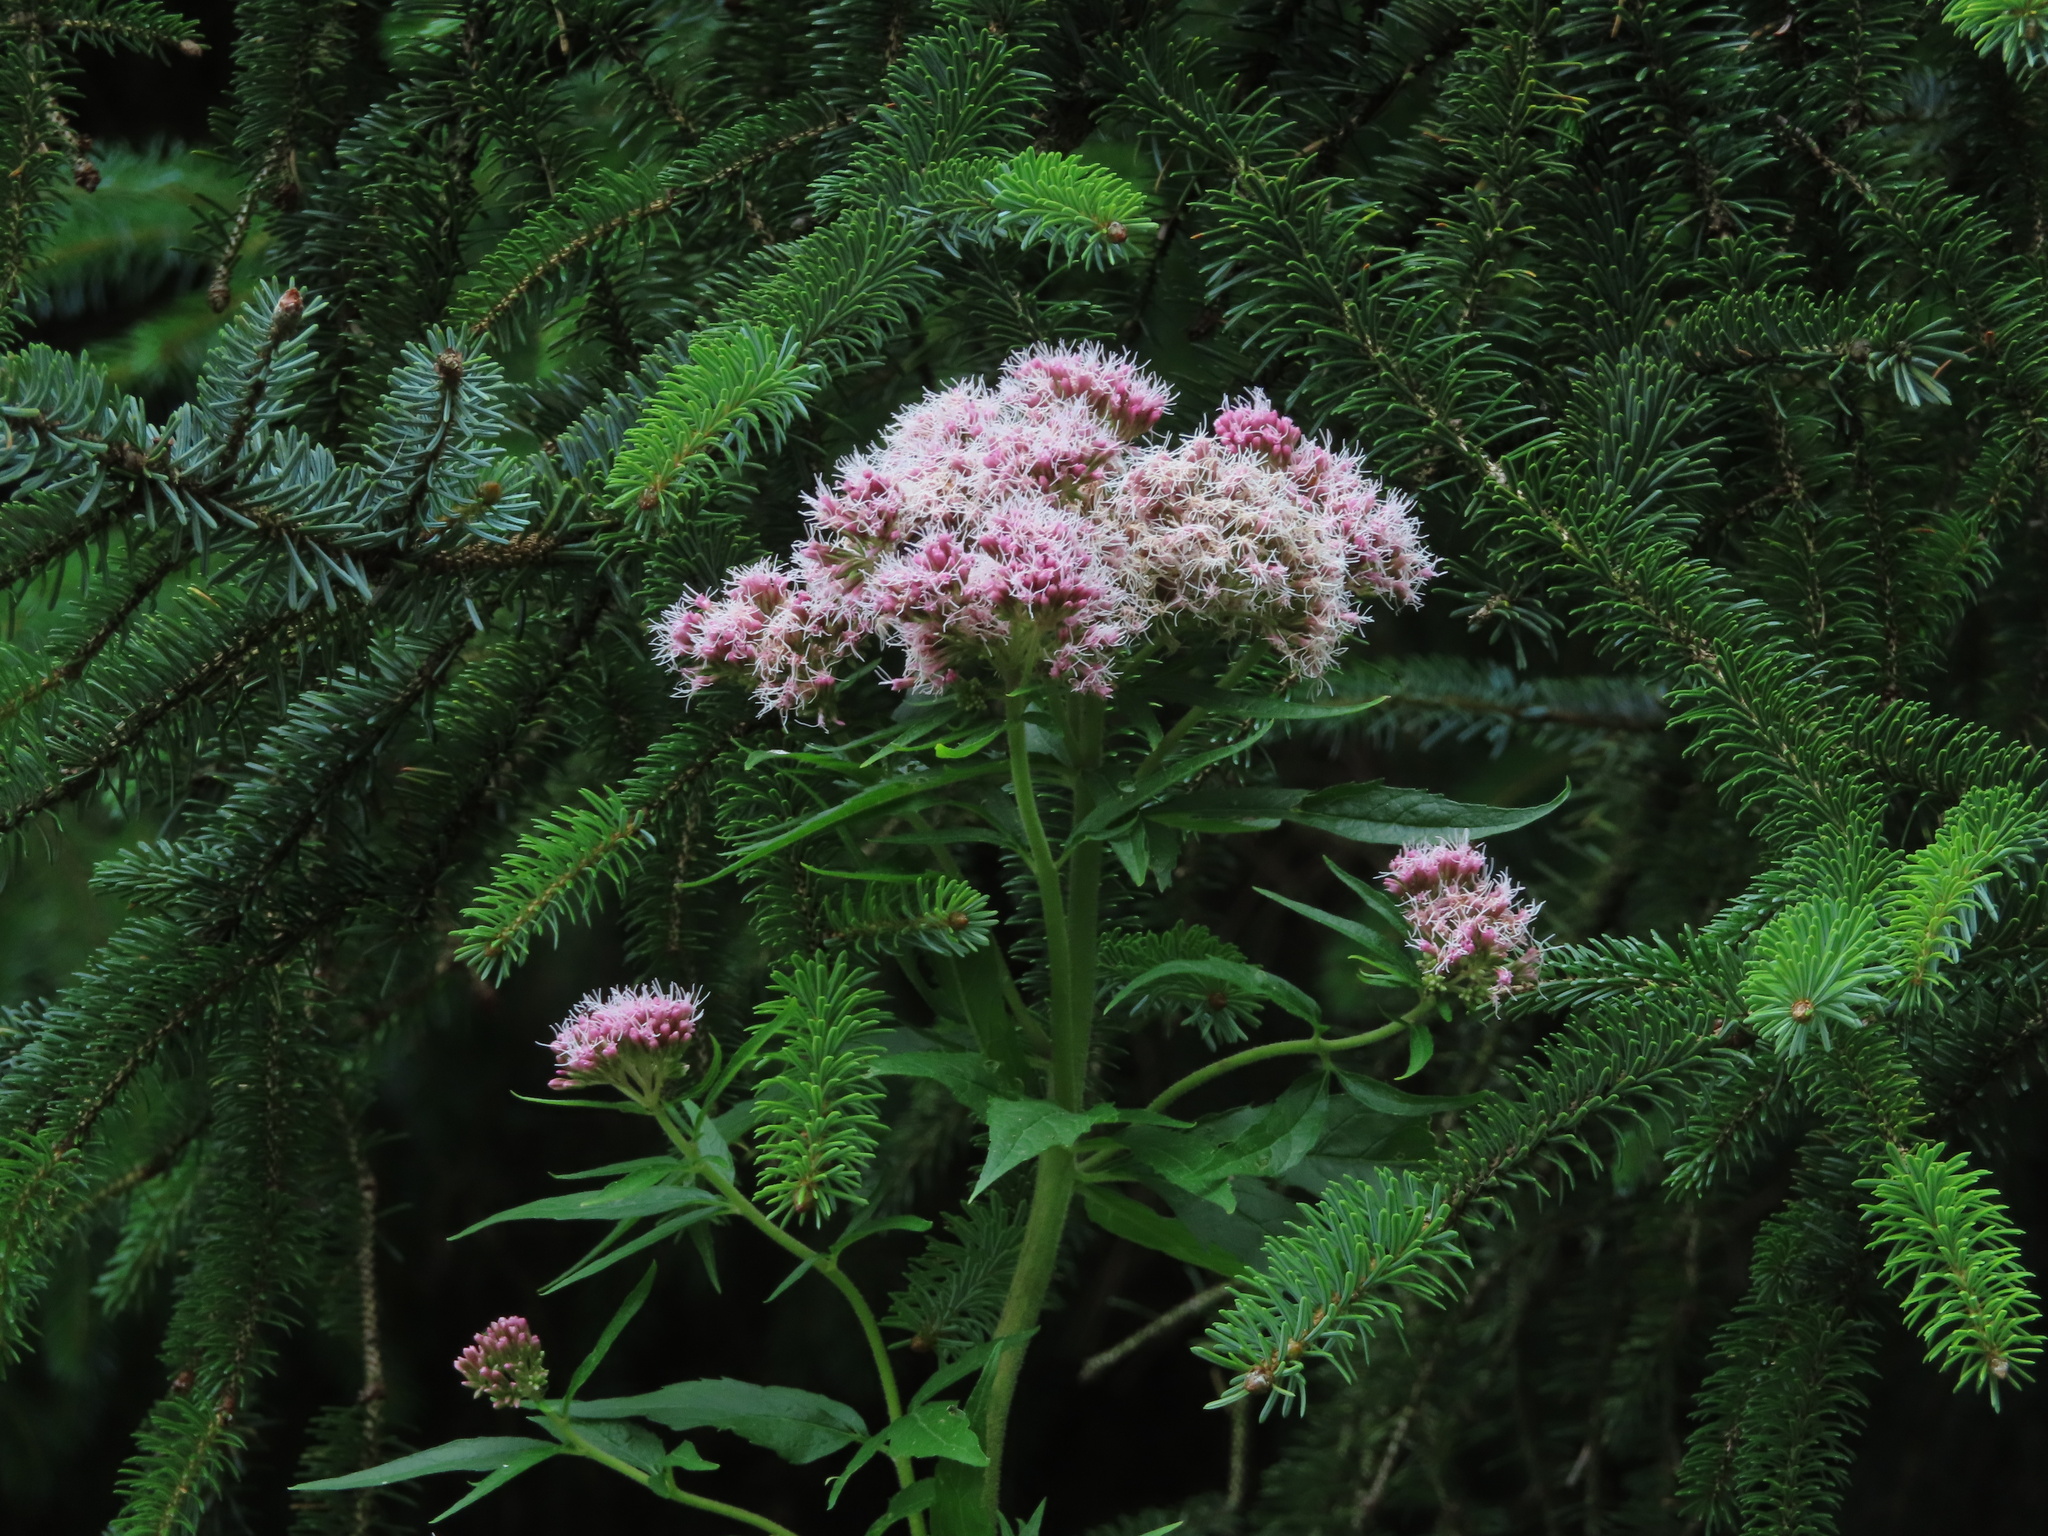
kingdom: Plantae
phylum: Tracheophyta
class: Magnoliopsida
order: Asterales
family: Asteraceae
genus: Eupatorium
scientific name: Eupatorium cannabinum
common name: Hemp-agrimony
